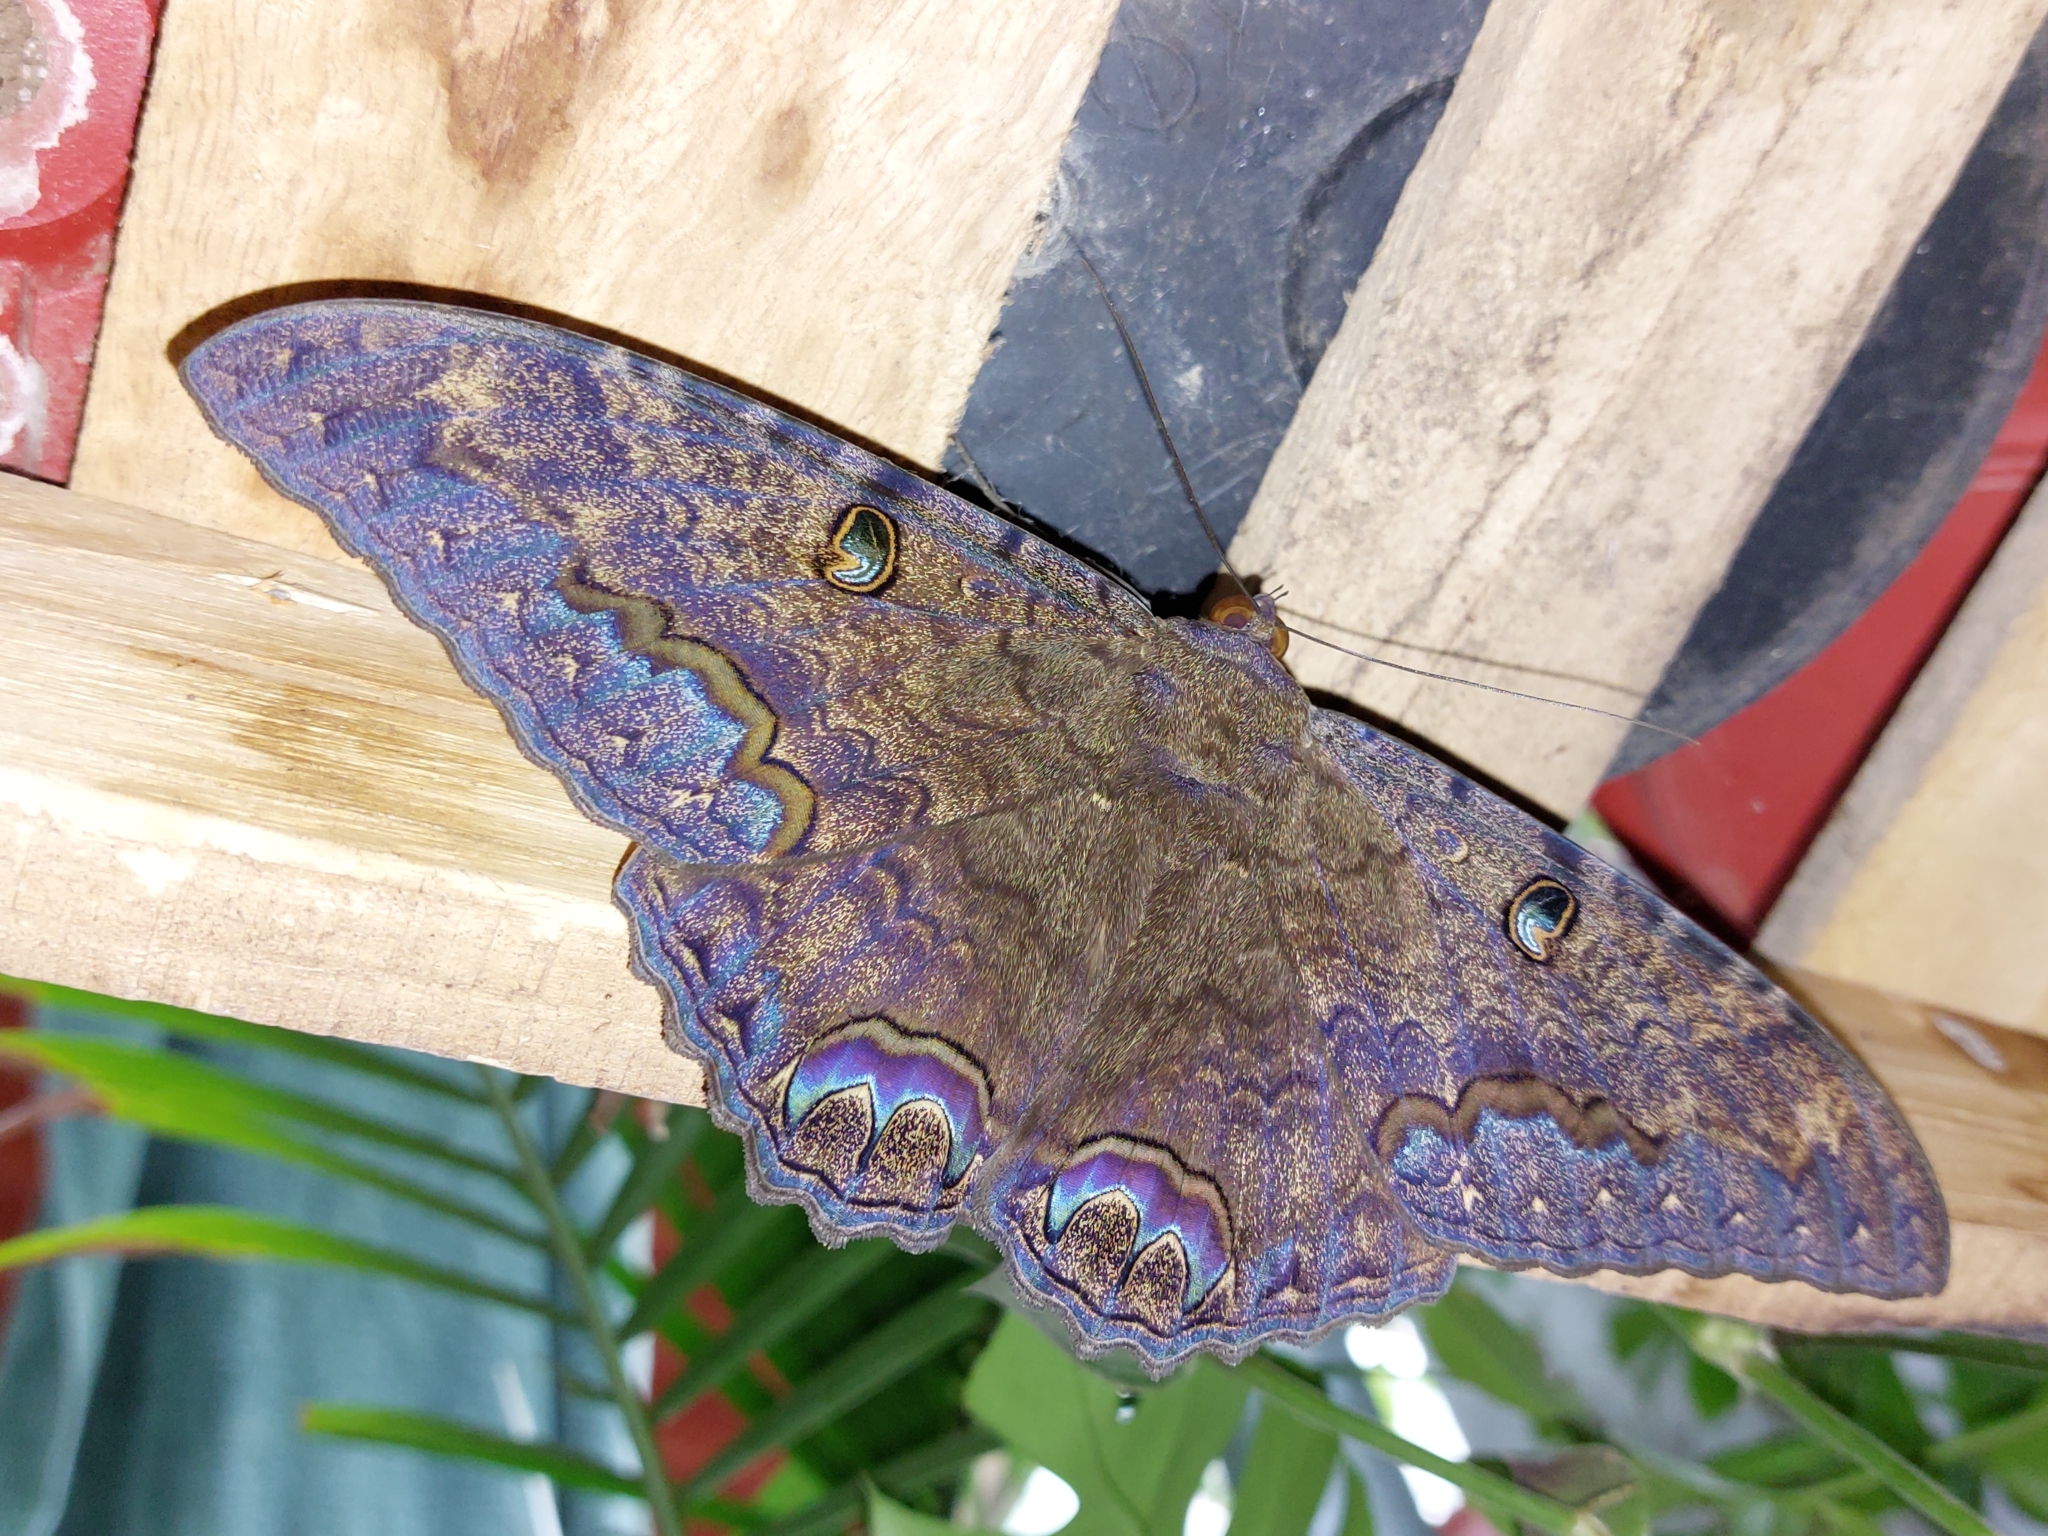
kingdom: Animalia
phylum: Arthropoda
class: Insecta
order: Lepidoptera
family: Erebidae
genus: Ascalapha
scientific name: Ascalapha odorata
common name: Black witch
